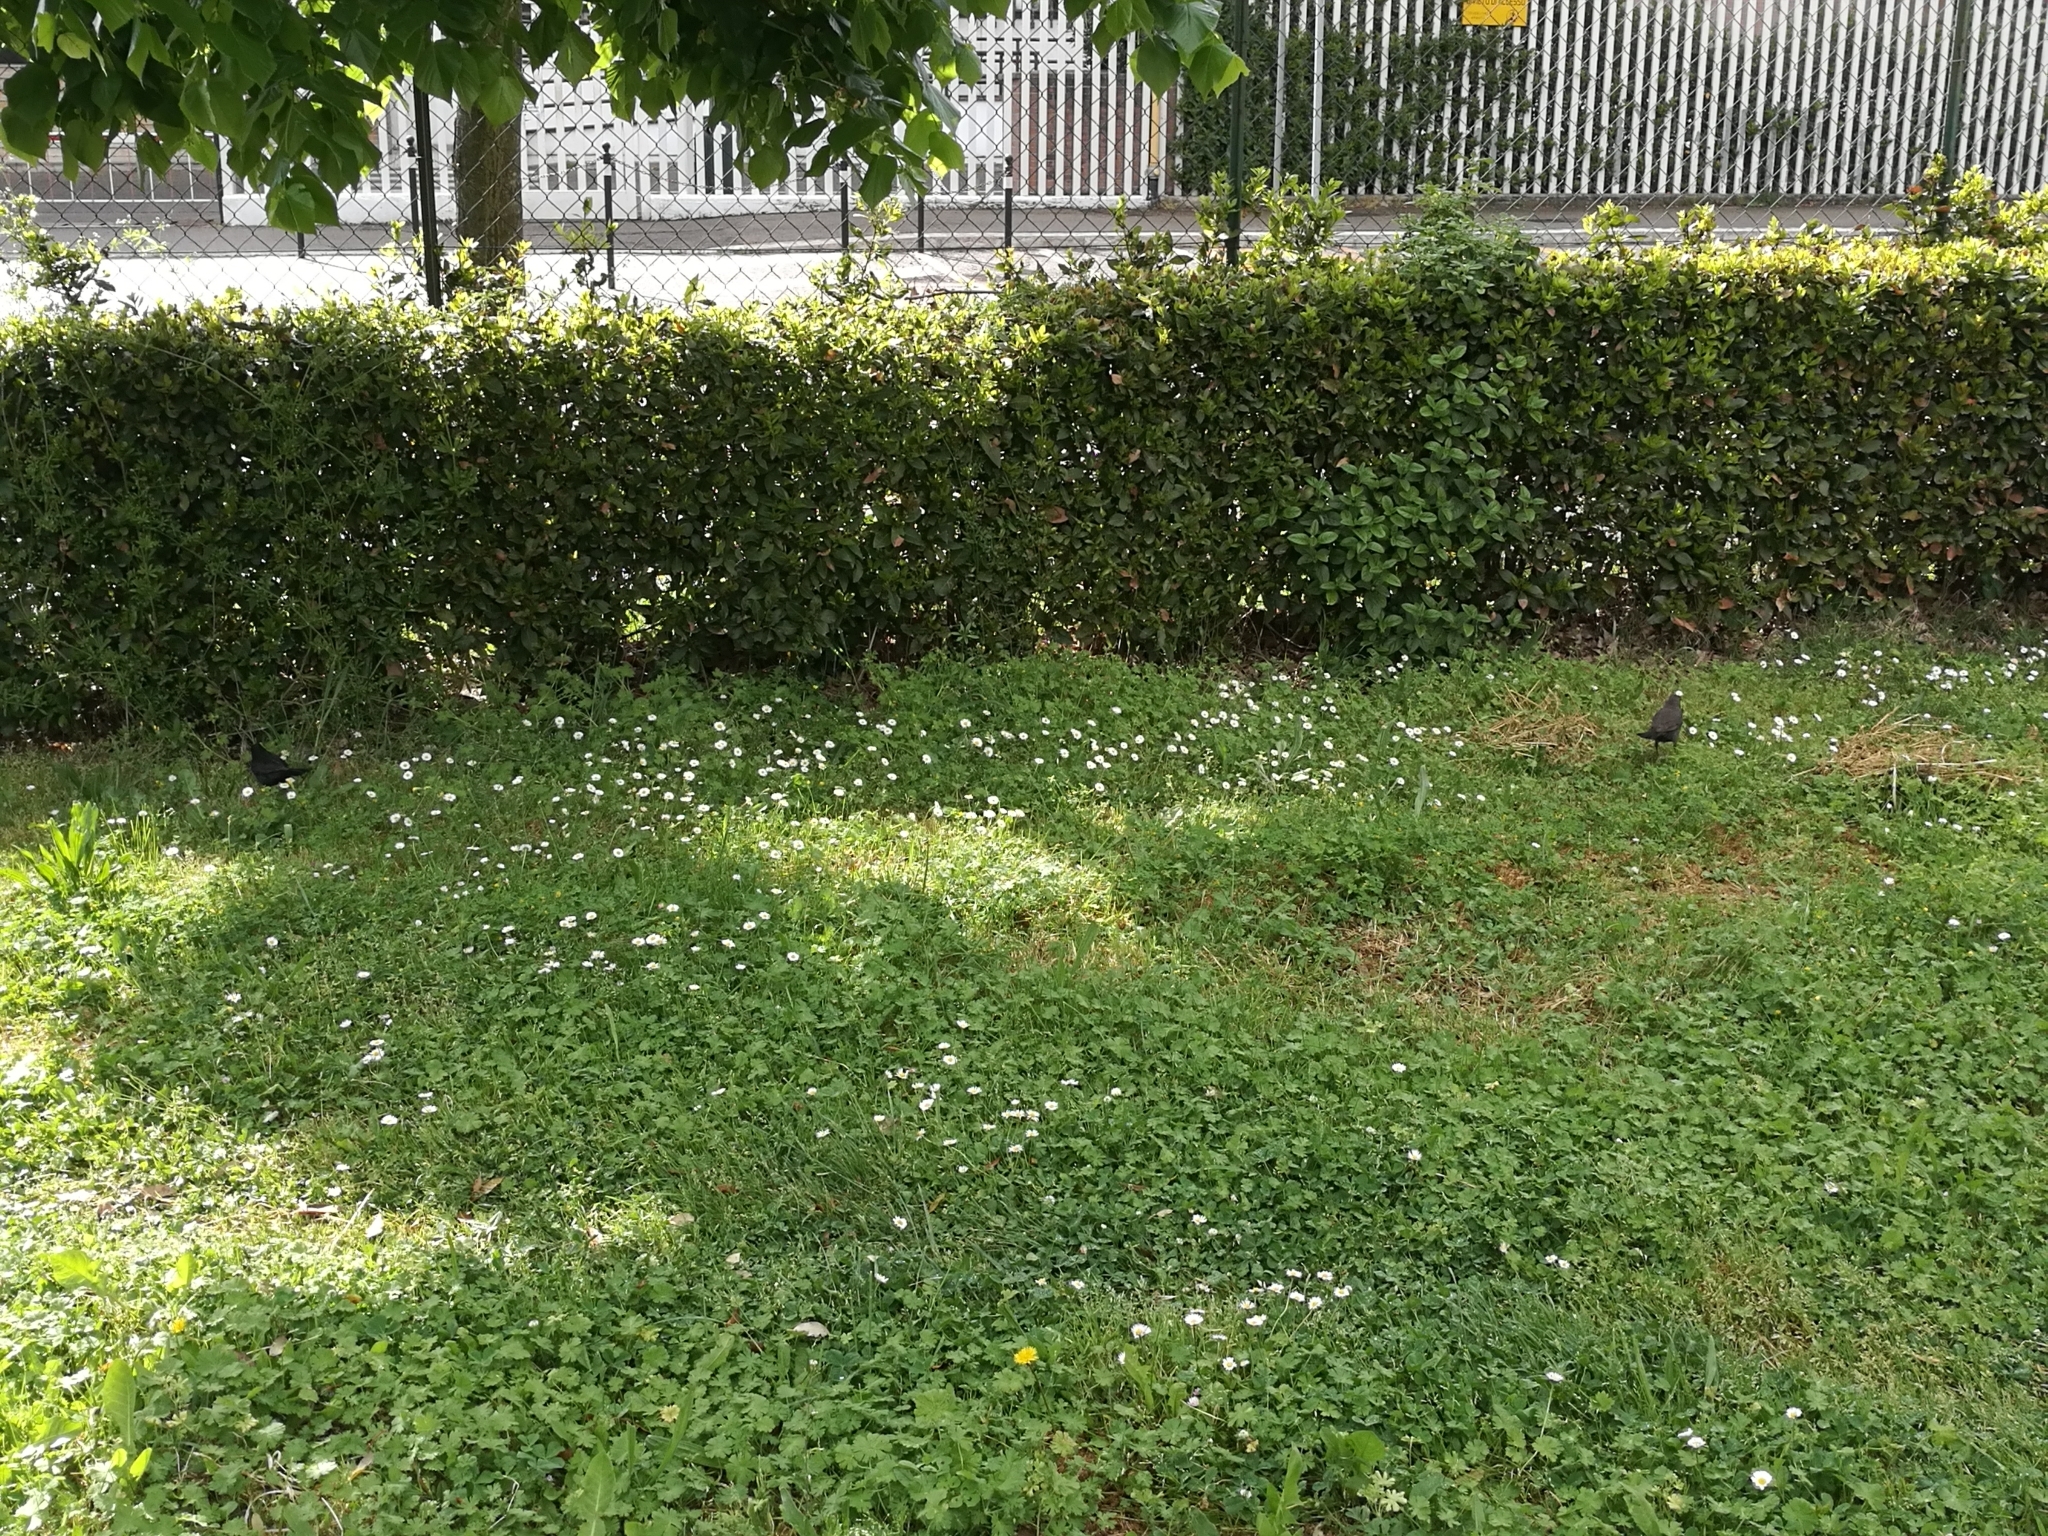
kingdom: Animalia
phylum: Chordata
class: Aves
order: Passeriformes
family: Turdidae
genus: Turdus
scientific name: Turdus merula
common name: Common blackbird
